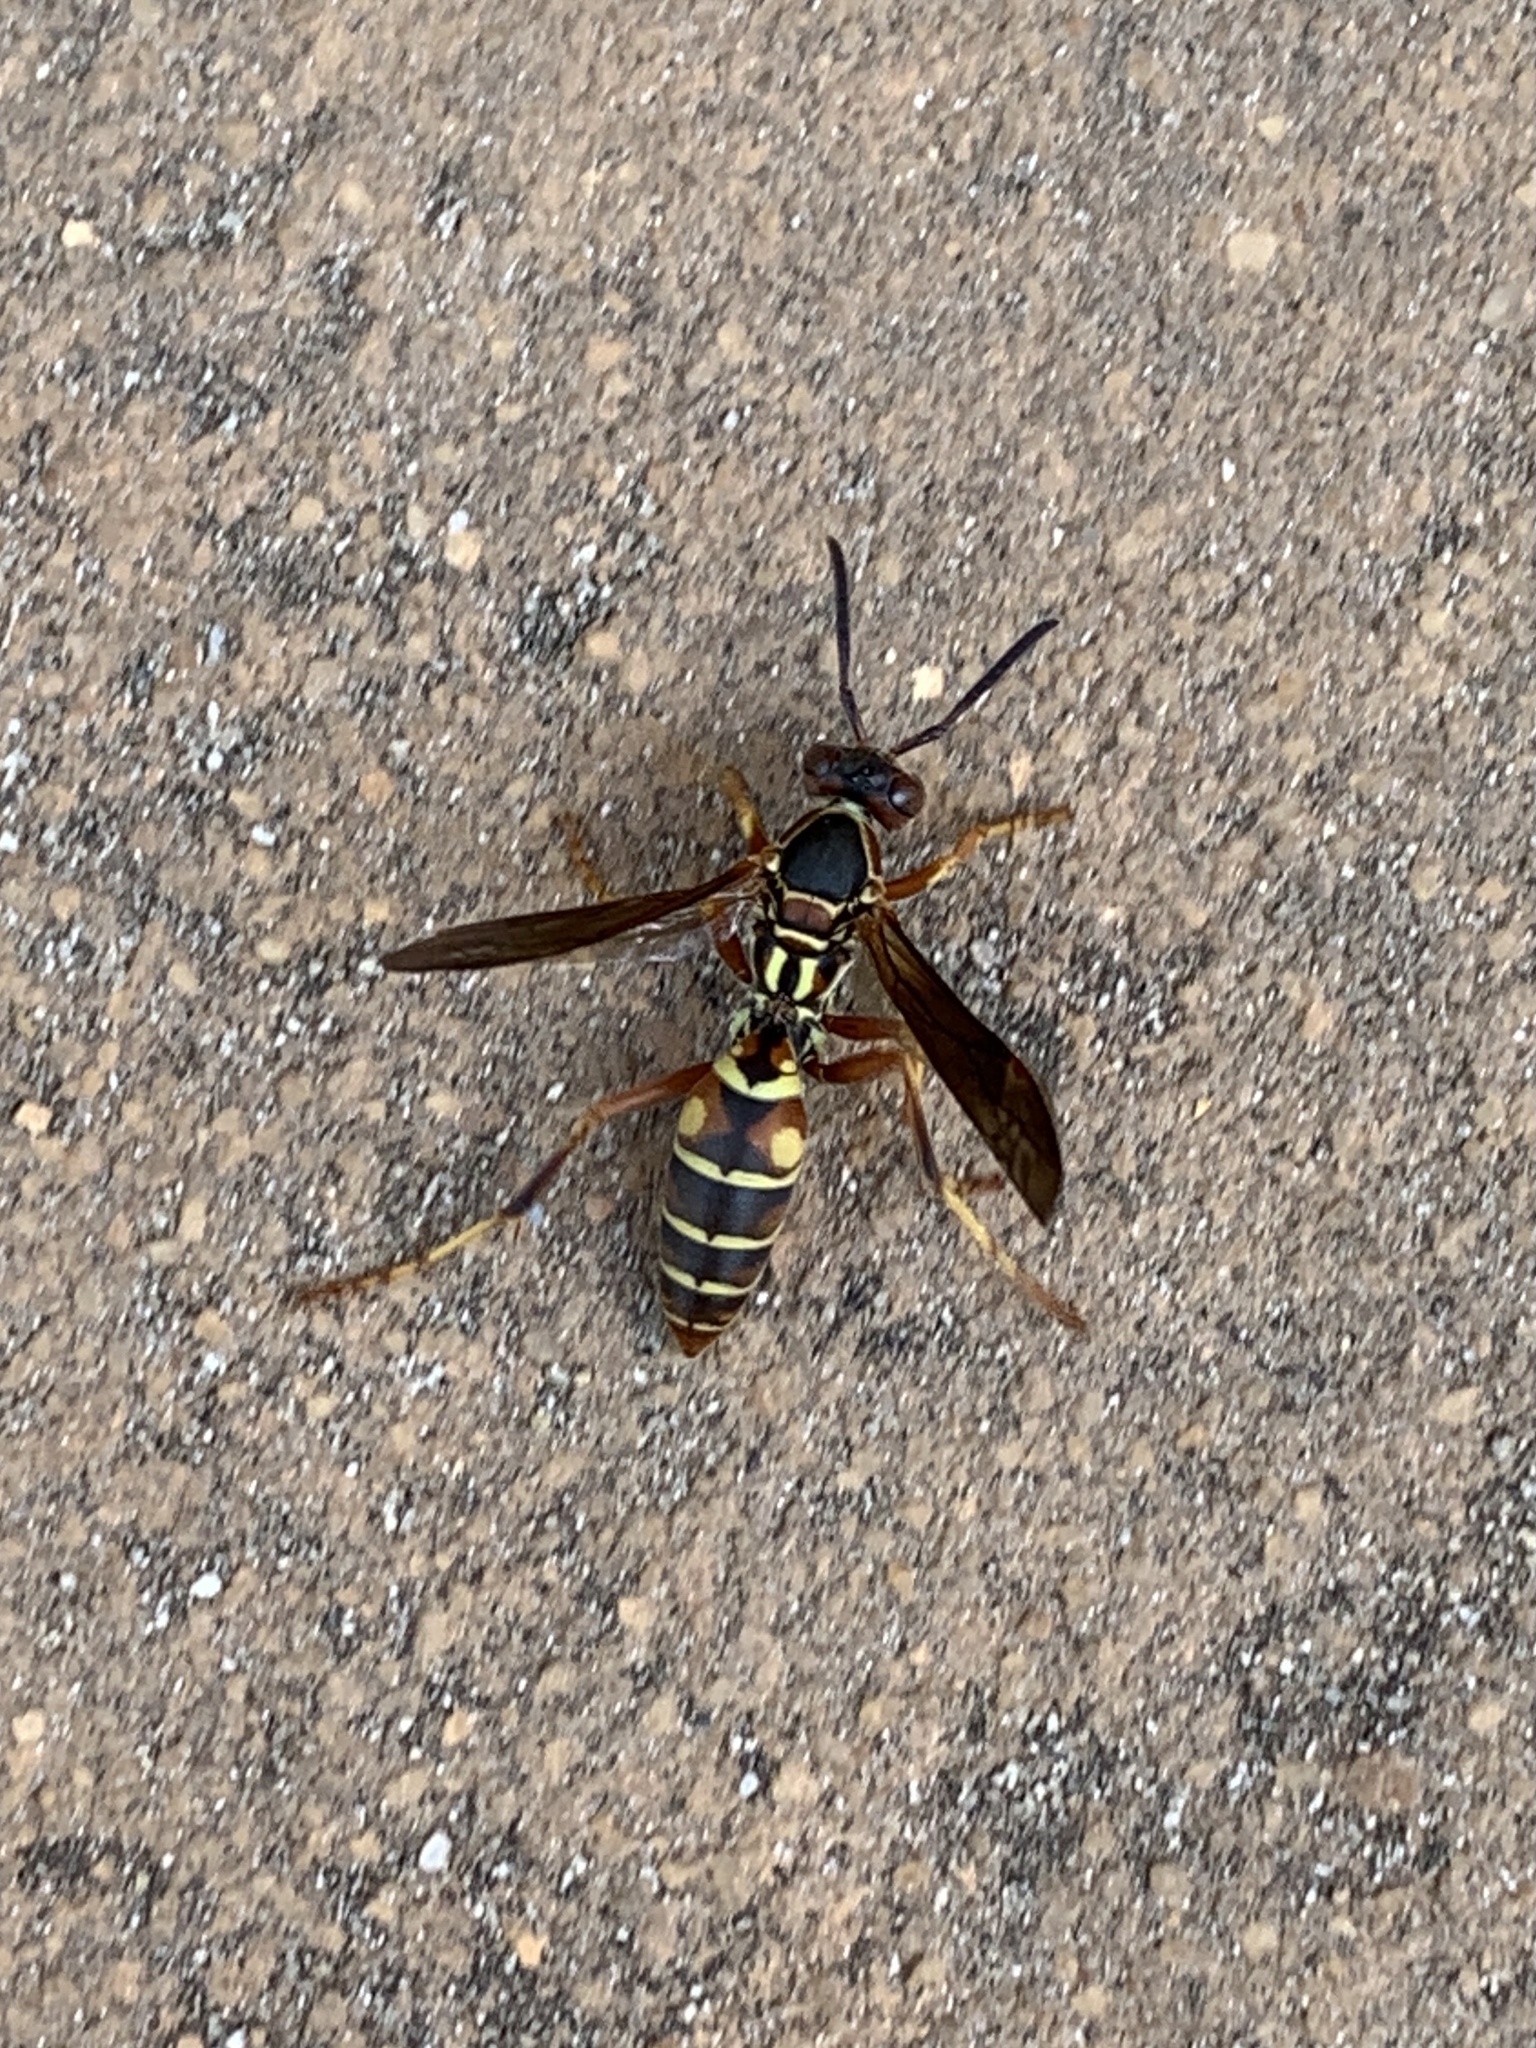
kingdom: Animalia
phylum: Arthropoda
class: Insecta
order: Hymenoptera
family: Eumenidae
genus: Polistes
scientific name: Polistes fuscatus
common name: Dark paper wasp
